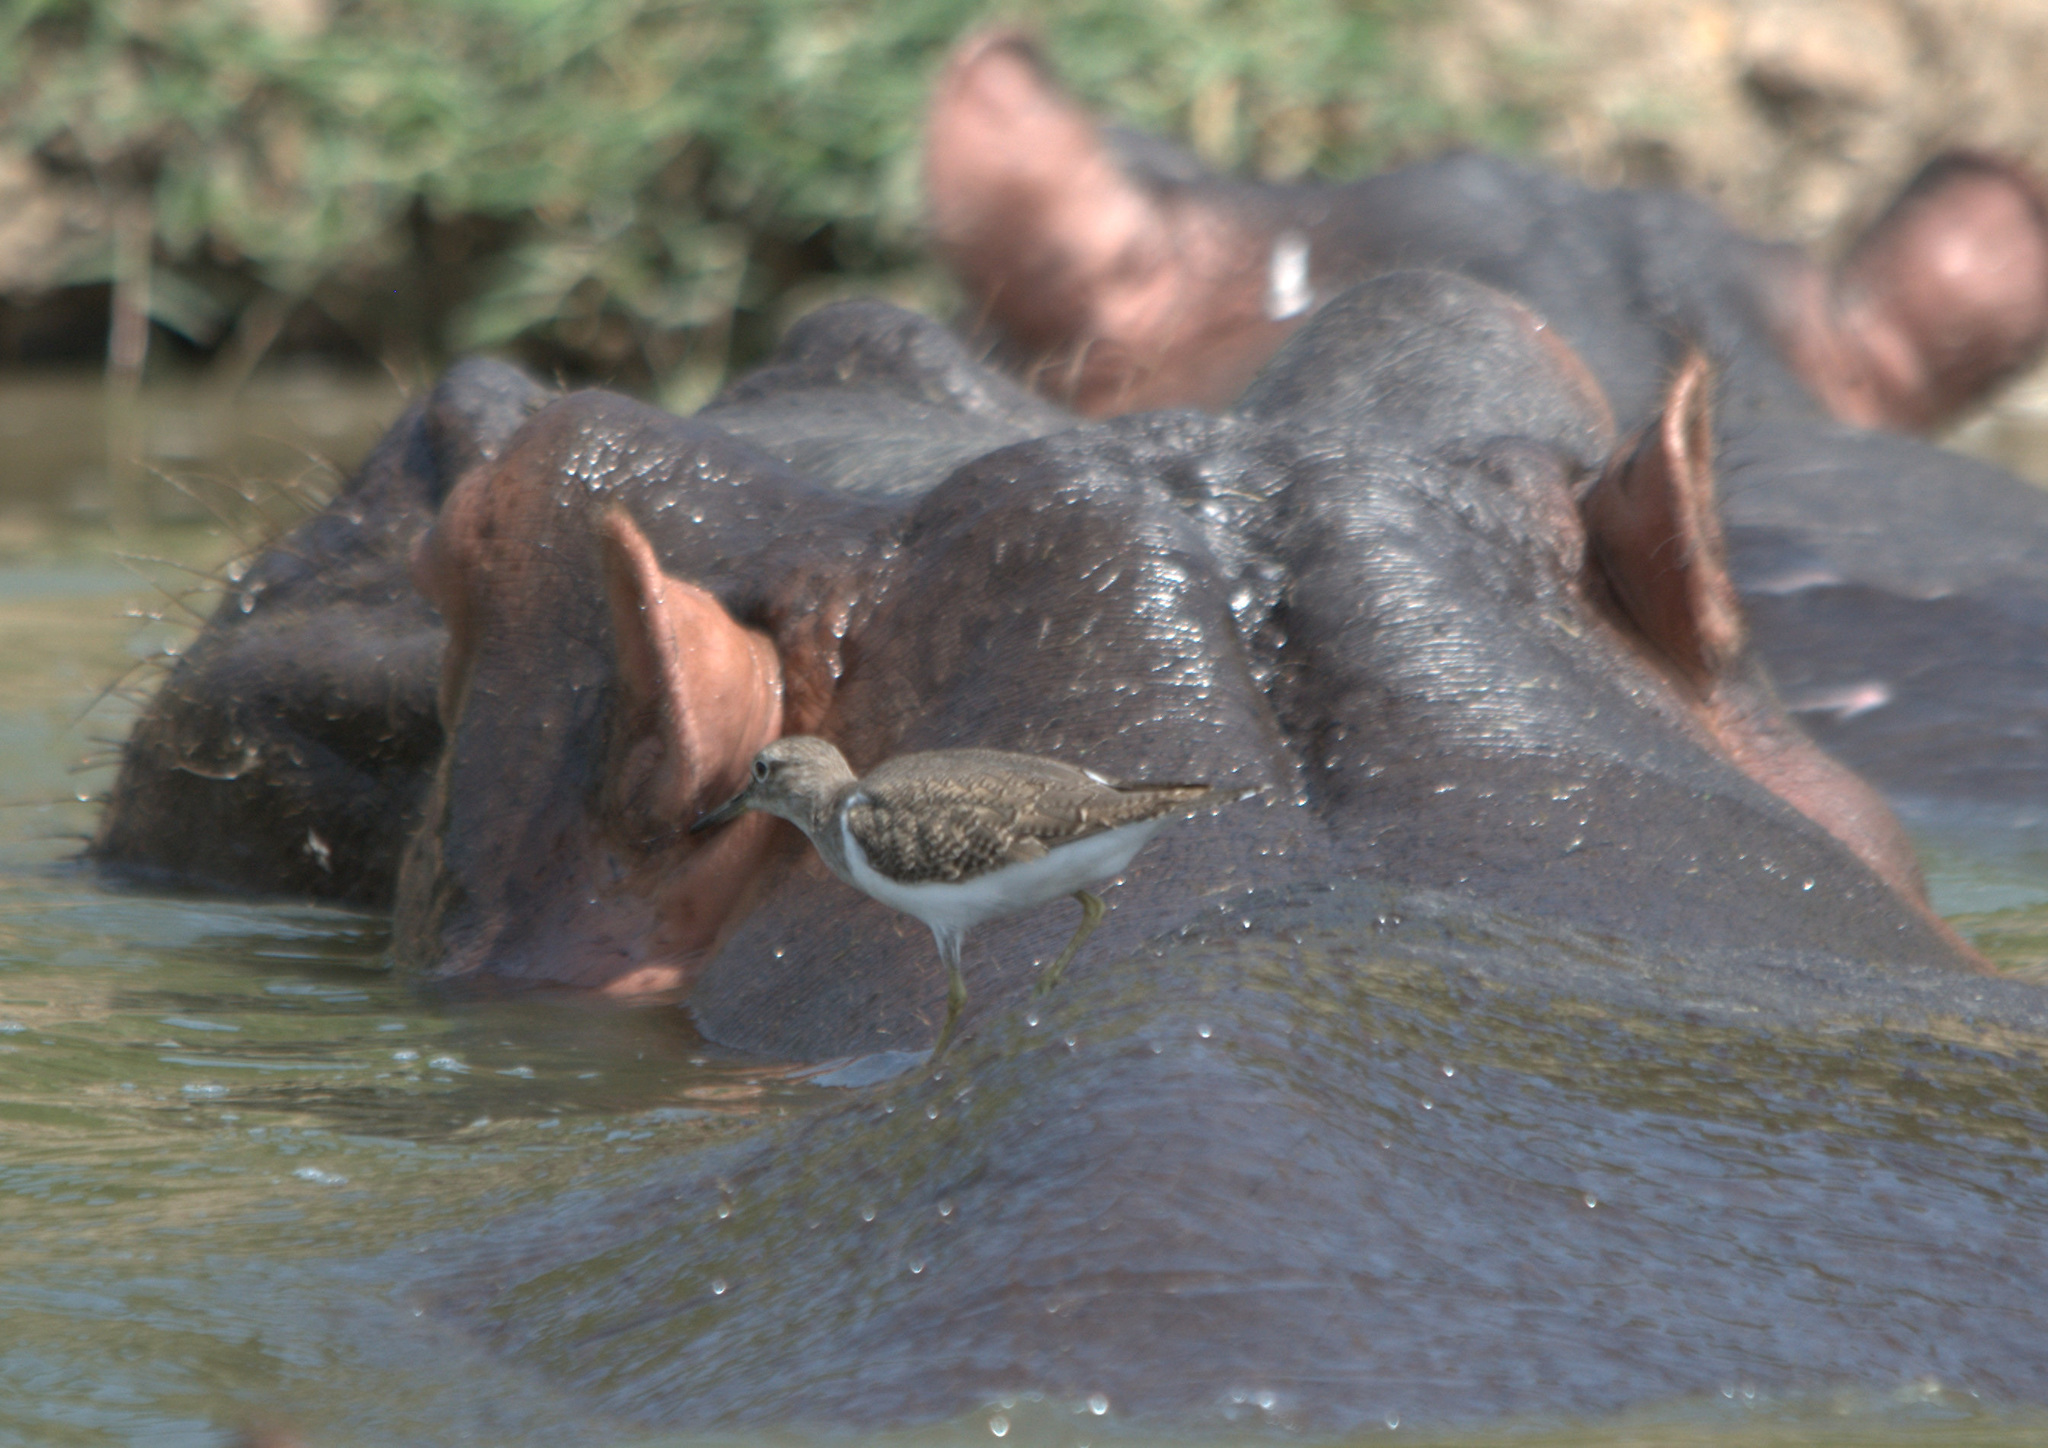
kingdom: Animalia
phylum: Chordata
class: Aves
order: Charadriiformes
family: Scolopacidae
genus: Actitis
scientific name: Actitis hypoleucos
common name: Common sandpiper
